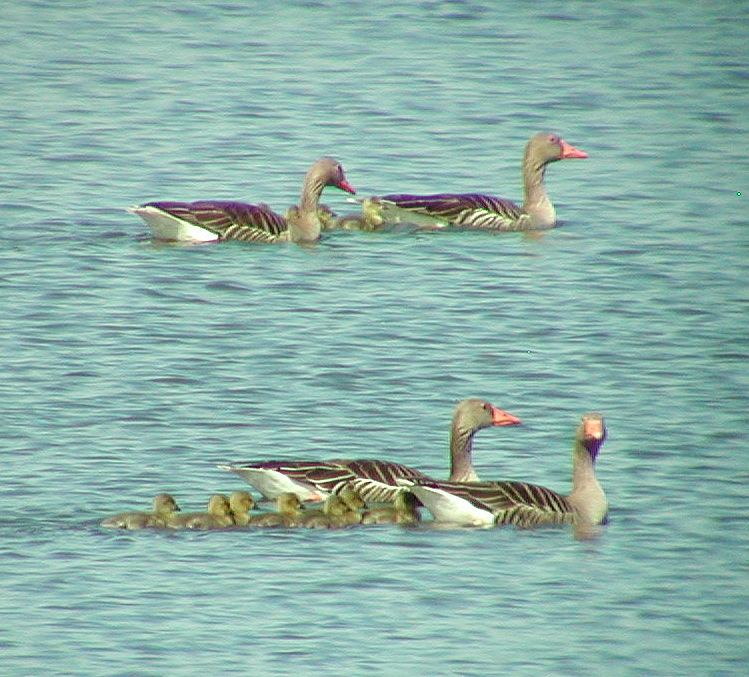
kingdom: Animalia
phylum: Chordata
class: Aves
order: Anseriformes
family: Anatidae
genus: Anser
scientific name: Anser anser
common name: Greylag goose
